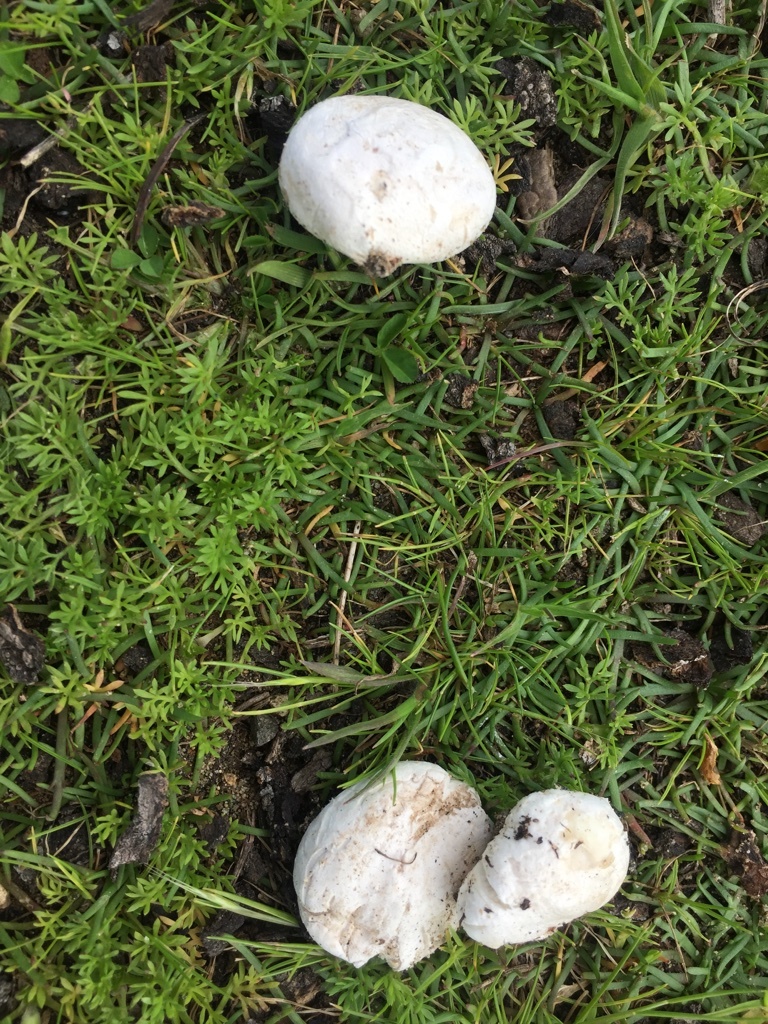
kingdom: Fungi
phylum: Basidiomycota
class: Agaricomycetes
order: Agaricales
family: Lycoperdaceae
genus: Bovista
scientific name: Bovista plumbea
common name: Grey puffball
